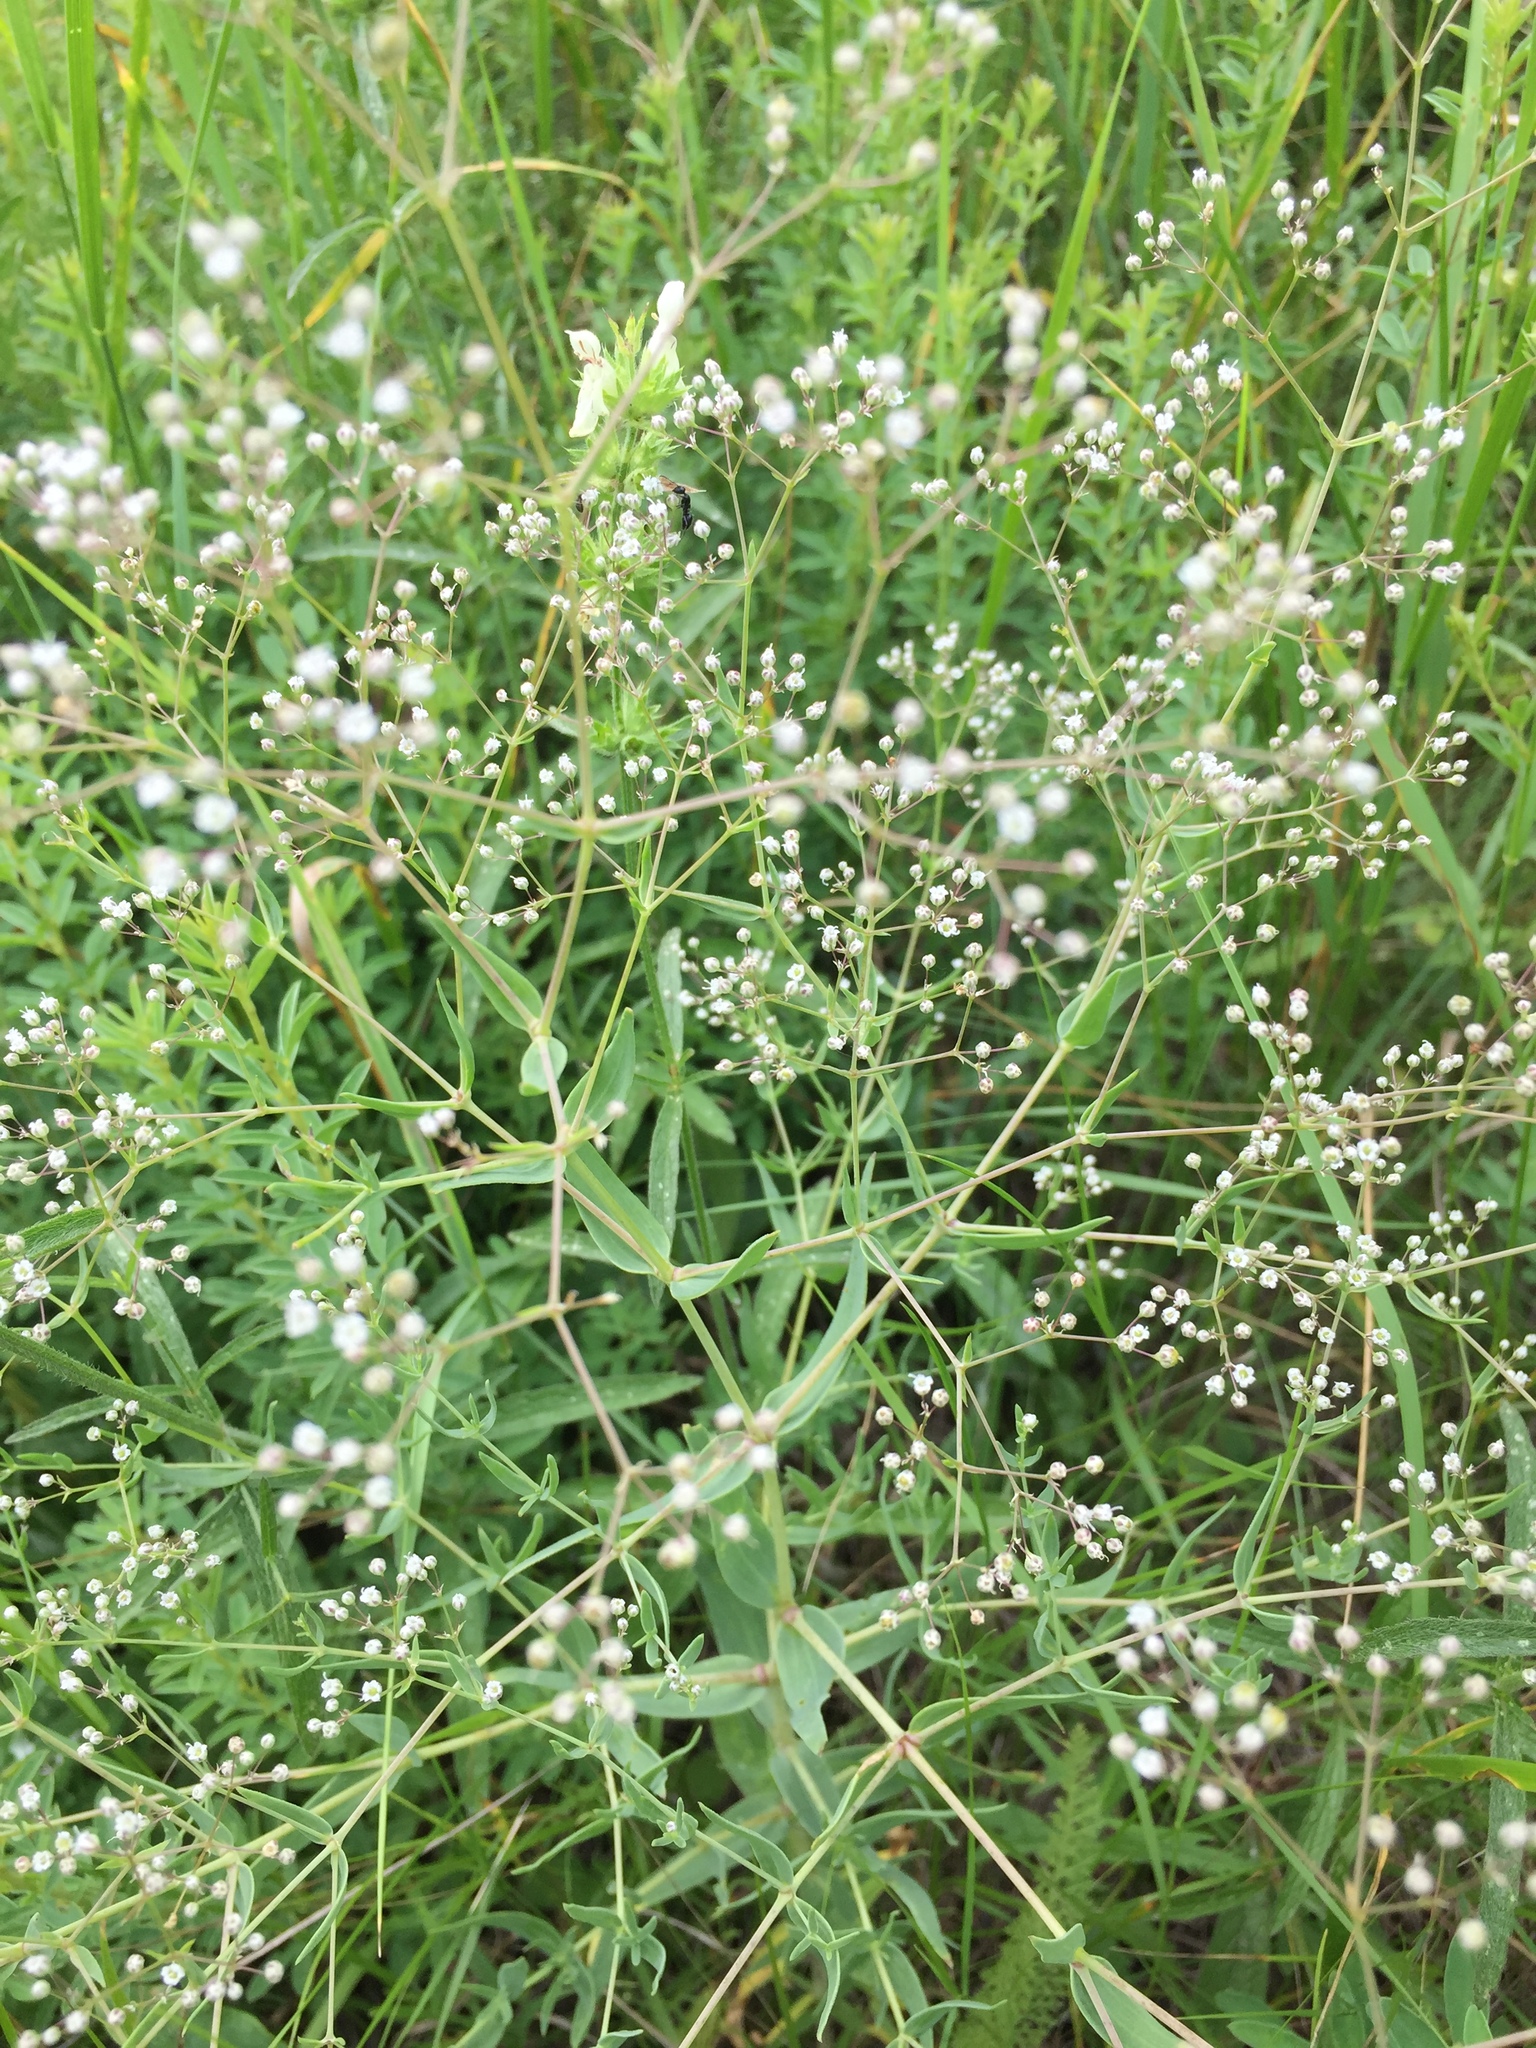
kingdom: Plantae
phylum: Tracheophyta
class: Magnoliopsida
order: Caryophyllales
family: Caryophyllaceae
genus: Gypsophila
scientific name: Gypsophila paniculata
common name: Baby's-breath
